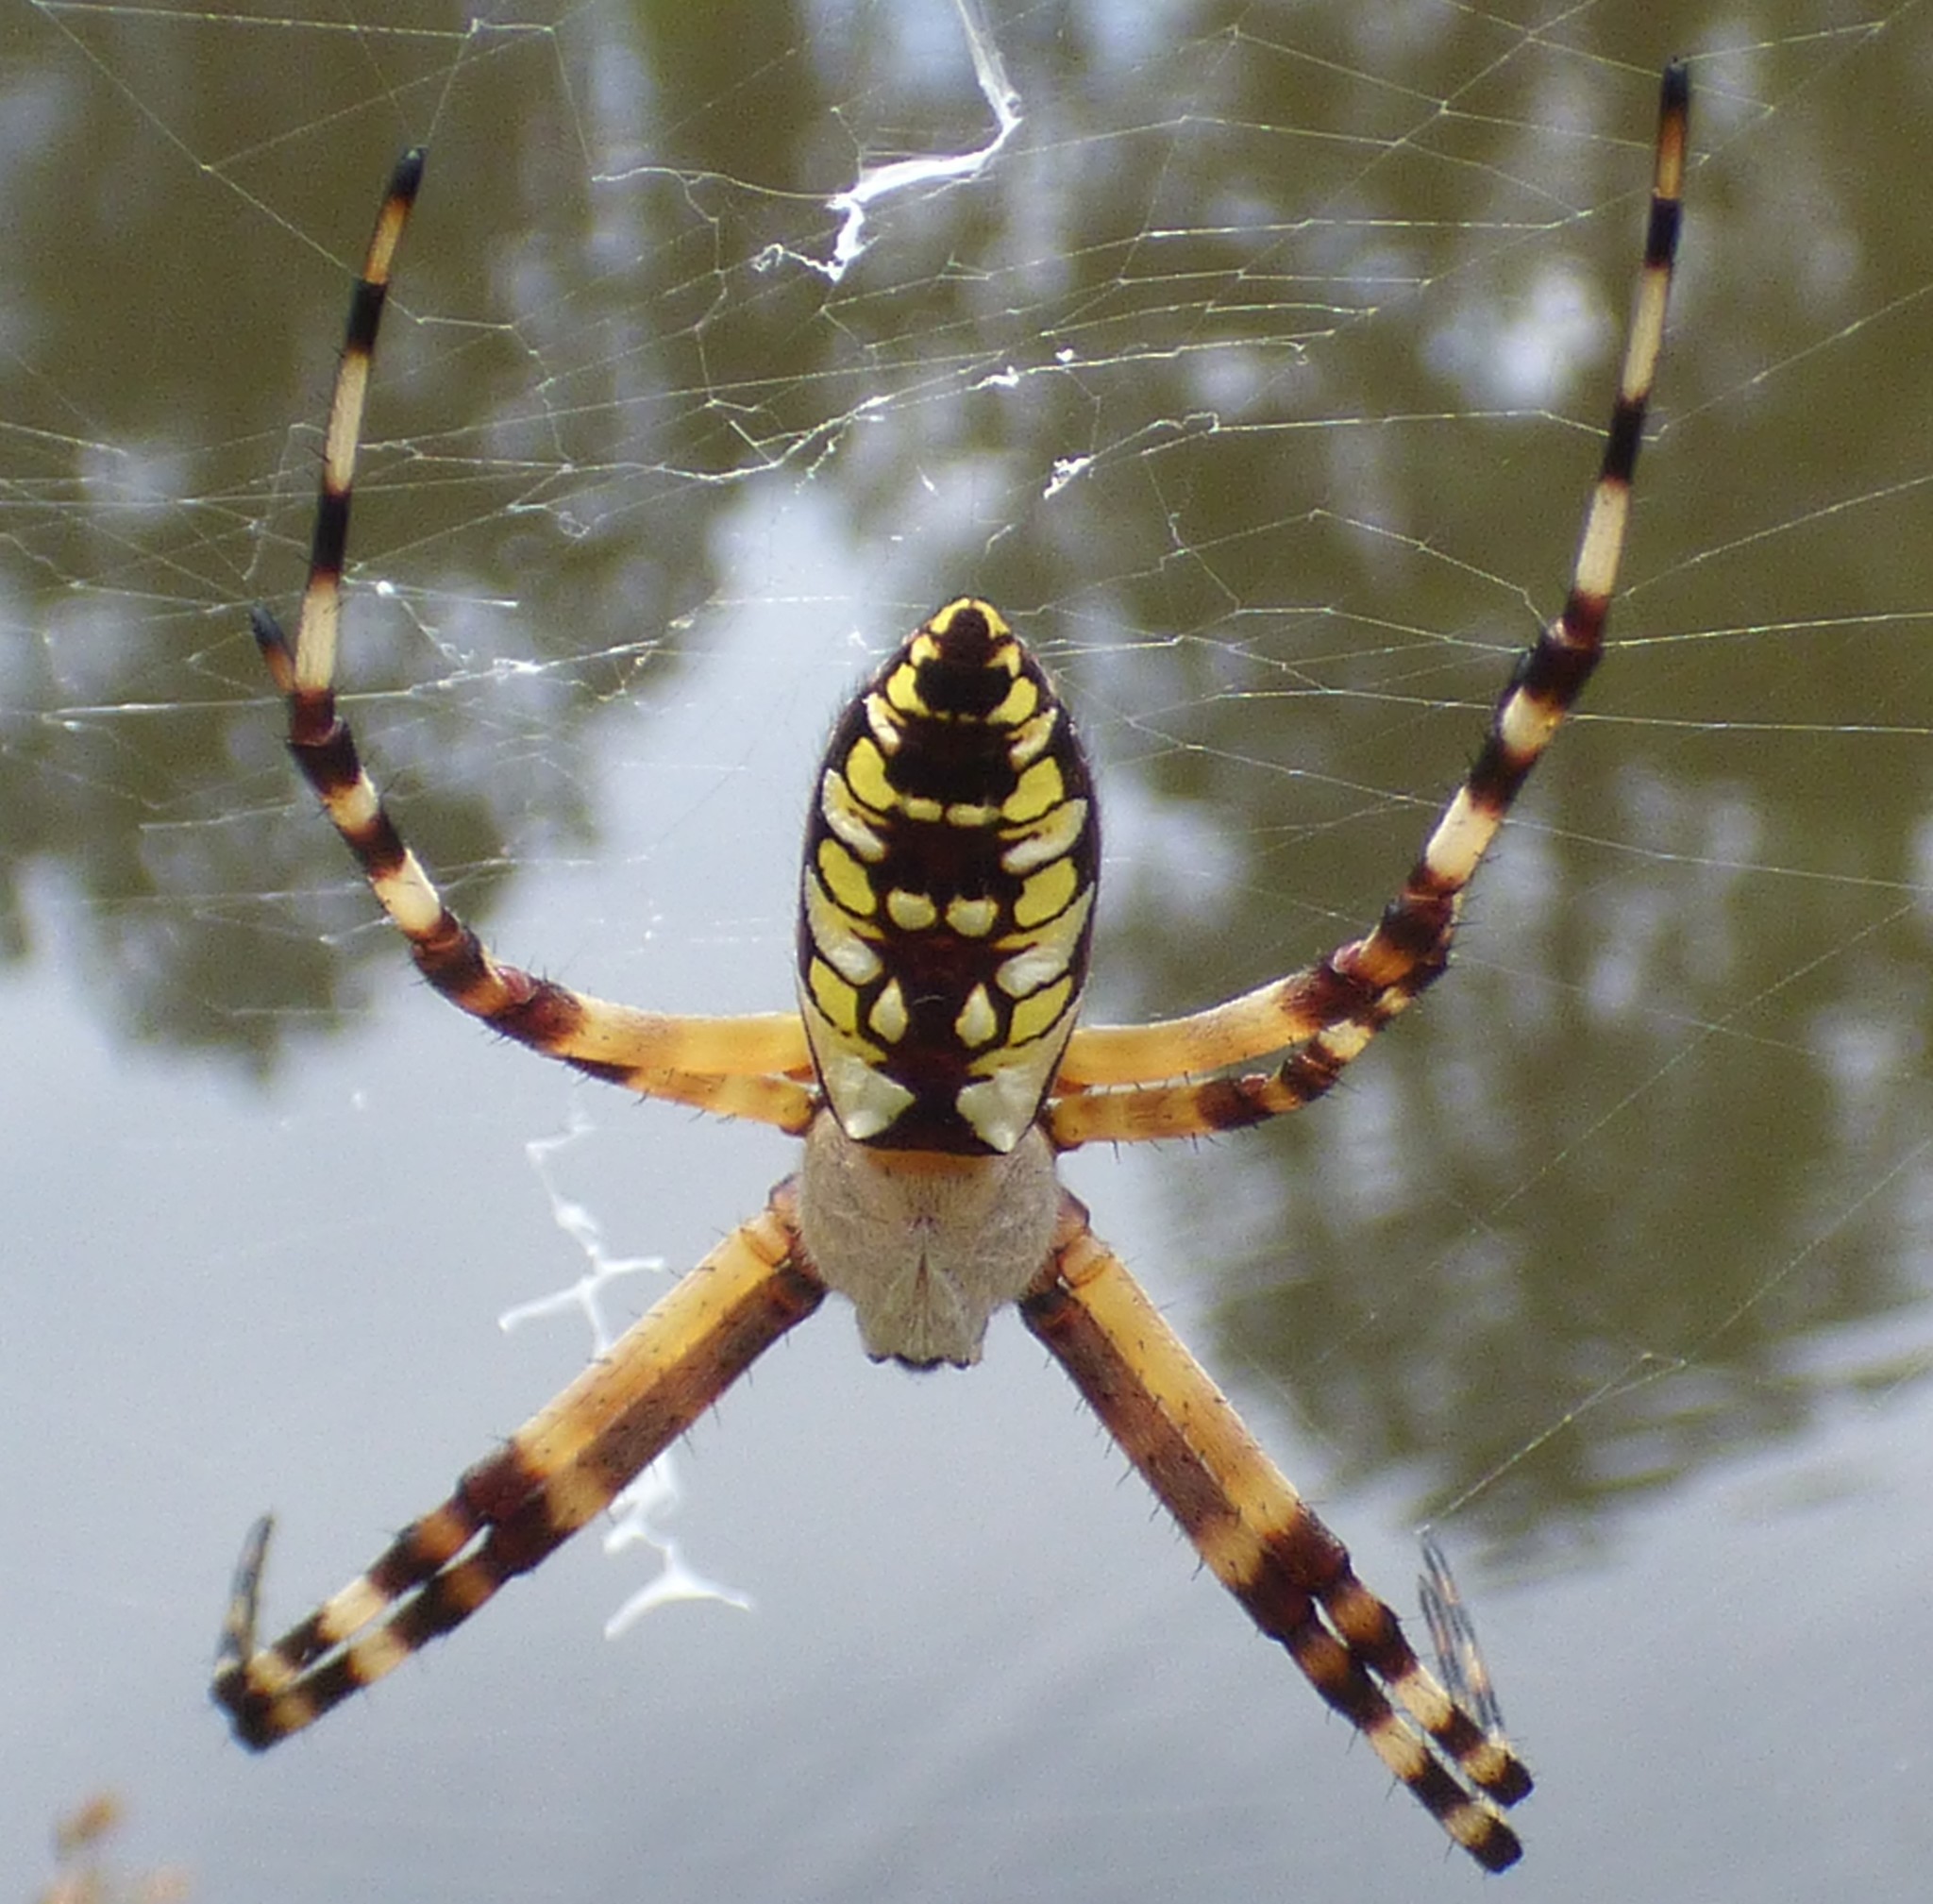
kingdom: Animalia
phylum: Arthropoda
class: Arachnida
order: Araneae
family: Araneidae
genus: Argiope
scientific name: Argiope aurantia
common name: Orb weavers
